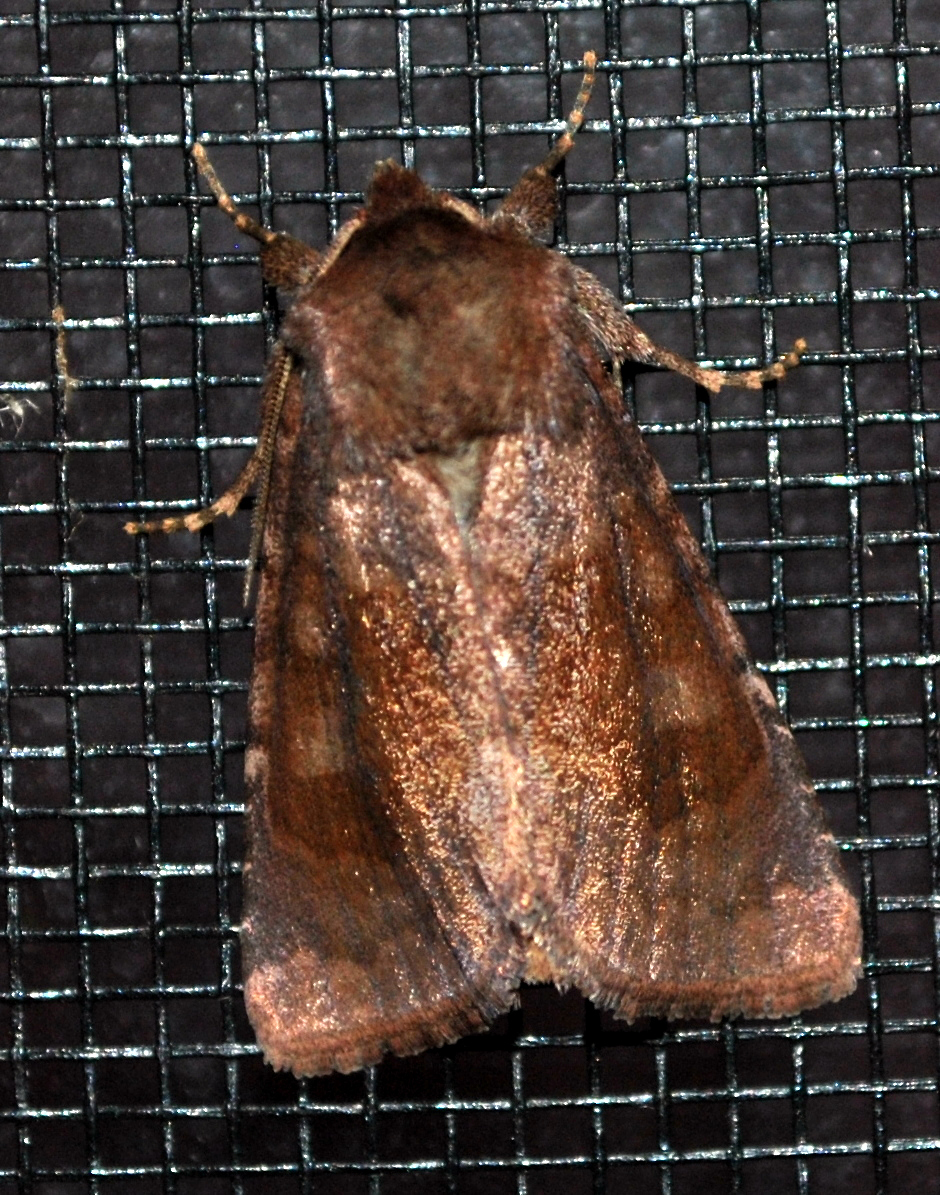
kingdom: Animalia
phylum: Arthropoda
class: Insecta
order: Lepidoptera
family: Noctuidae
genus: Nephelodes
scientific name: Nephelodes minians
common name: Bronzed cutworm
